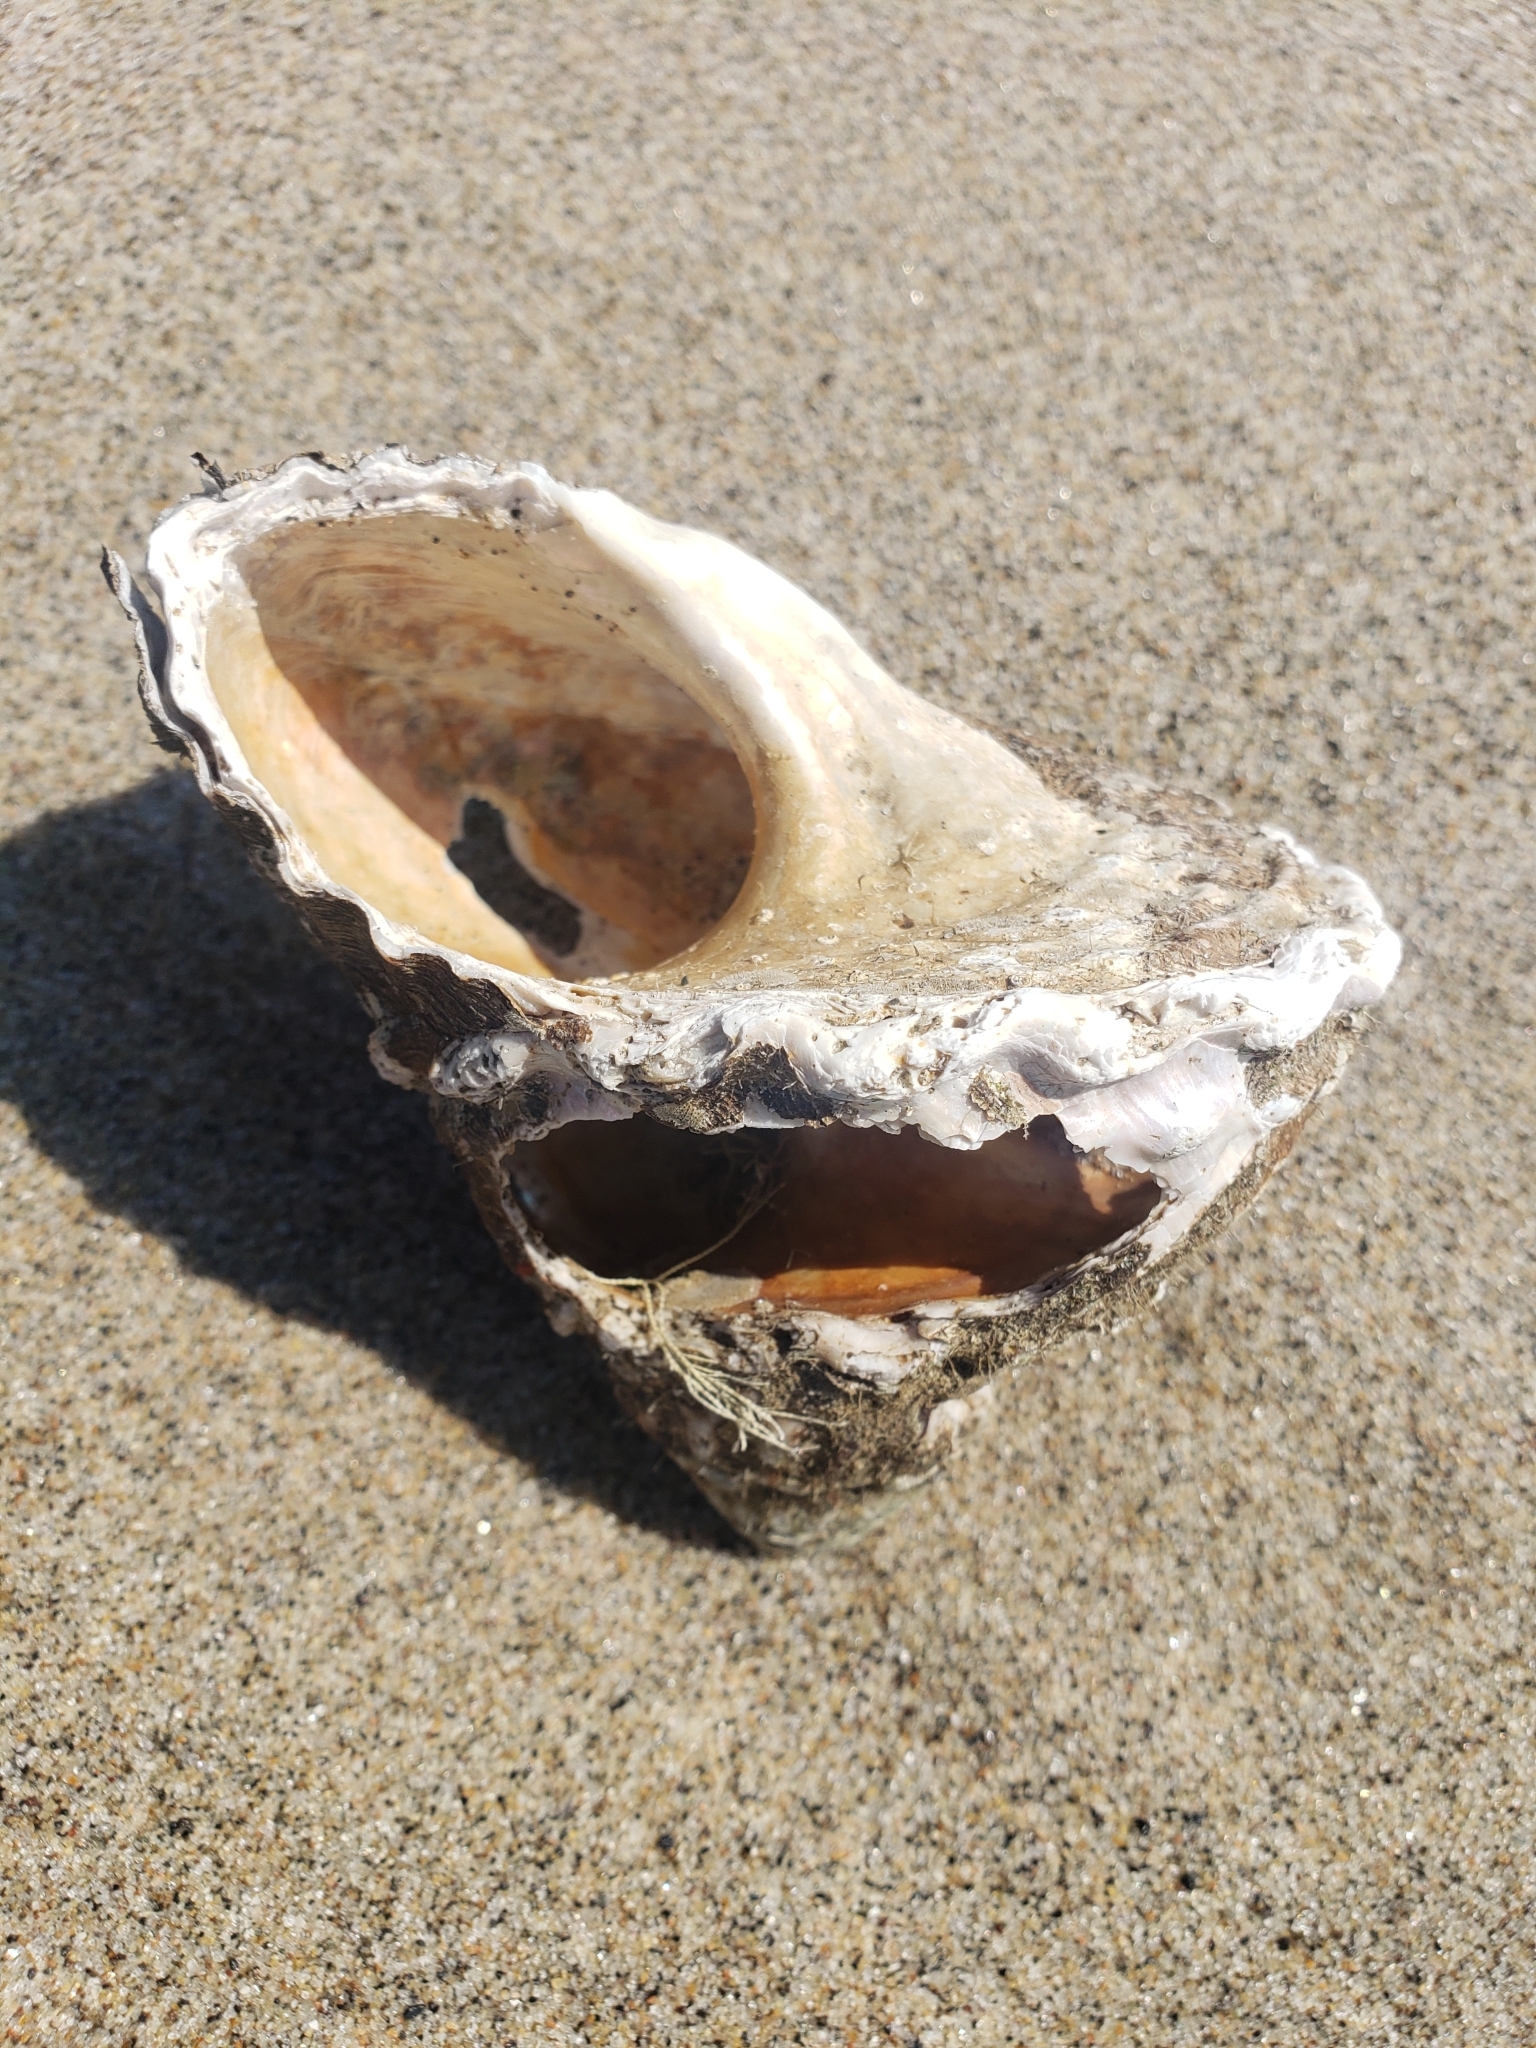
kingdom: Animalia
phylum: Mollusca
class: Gastropoda
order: Trochida
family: Turbinidae
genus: Megastraea
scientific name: Megastraea undosa
